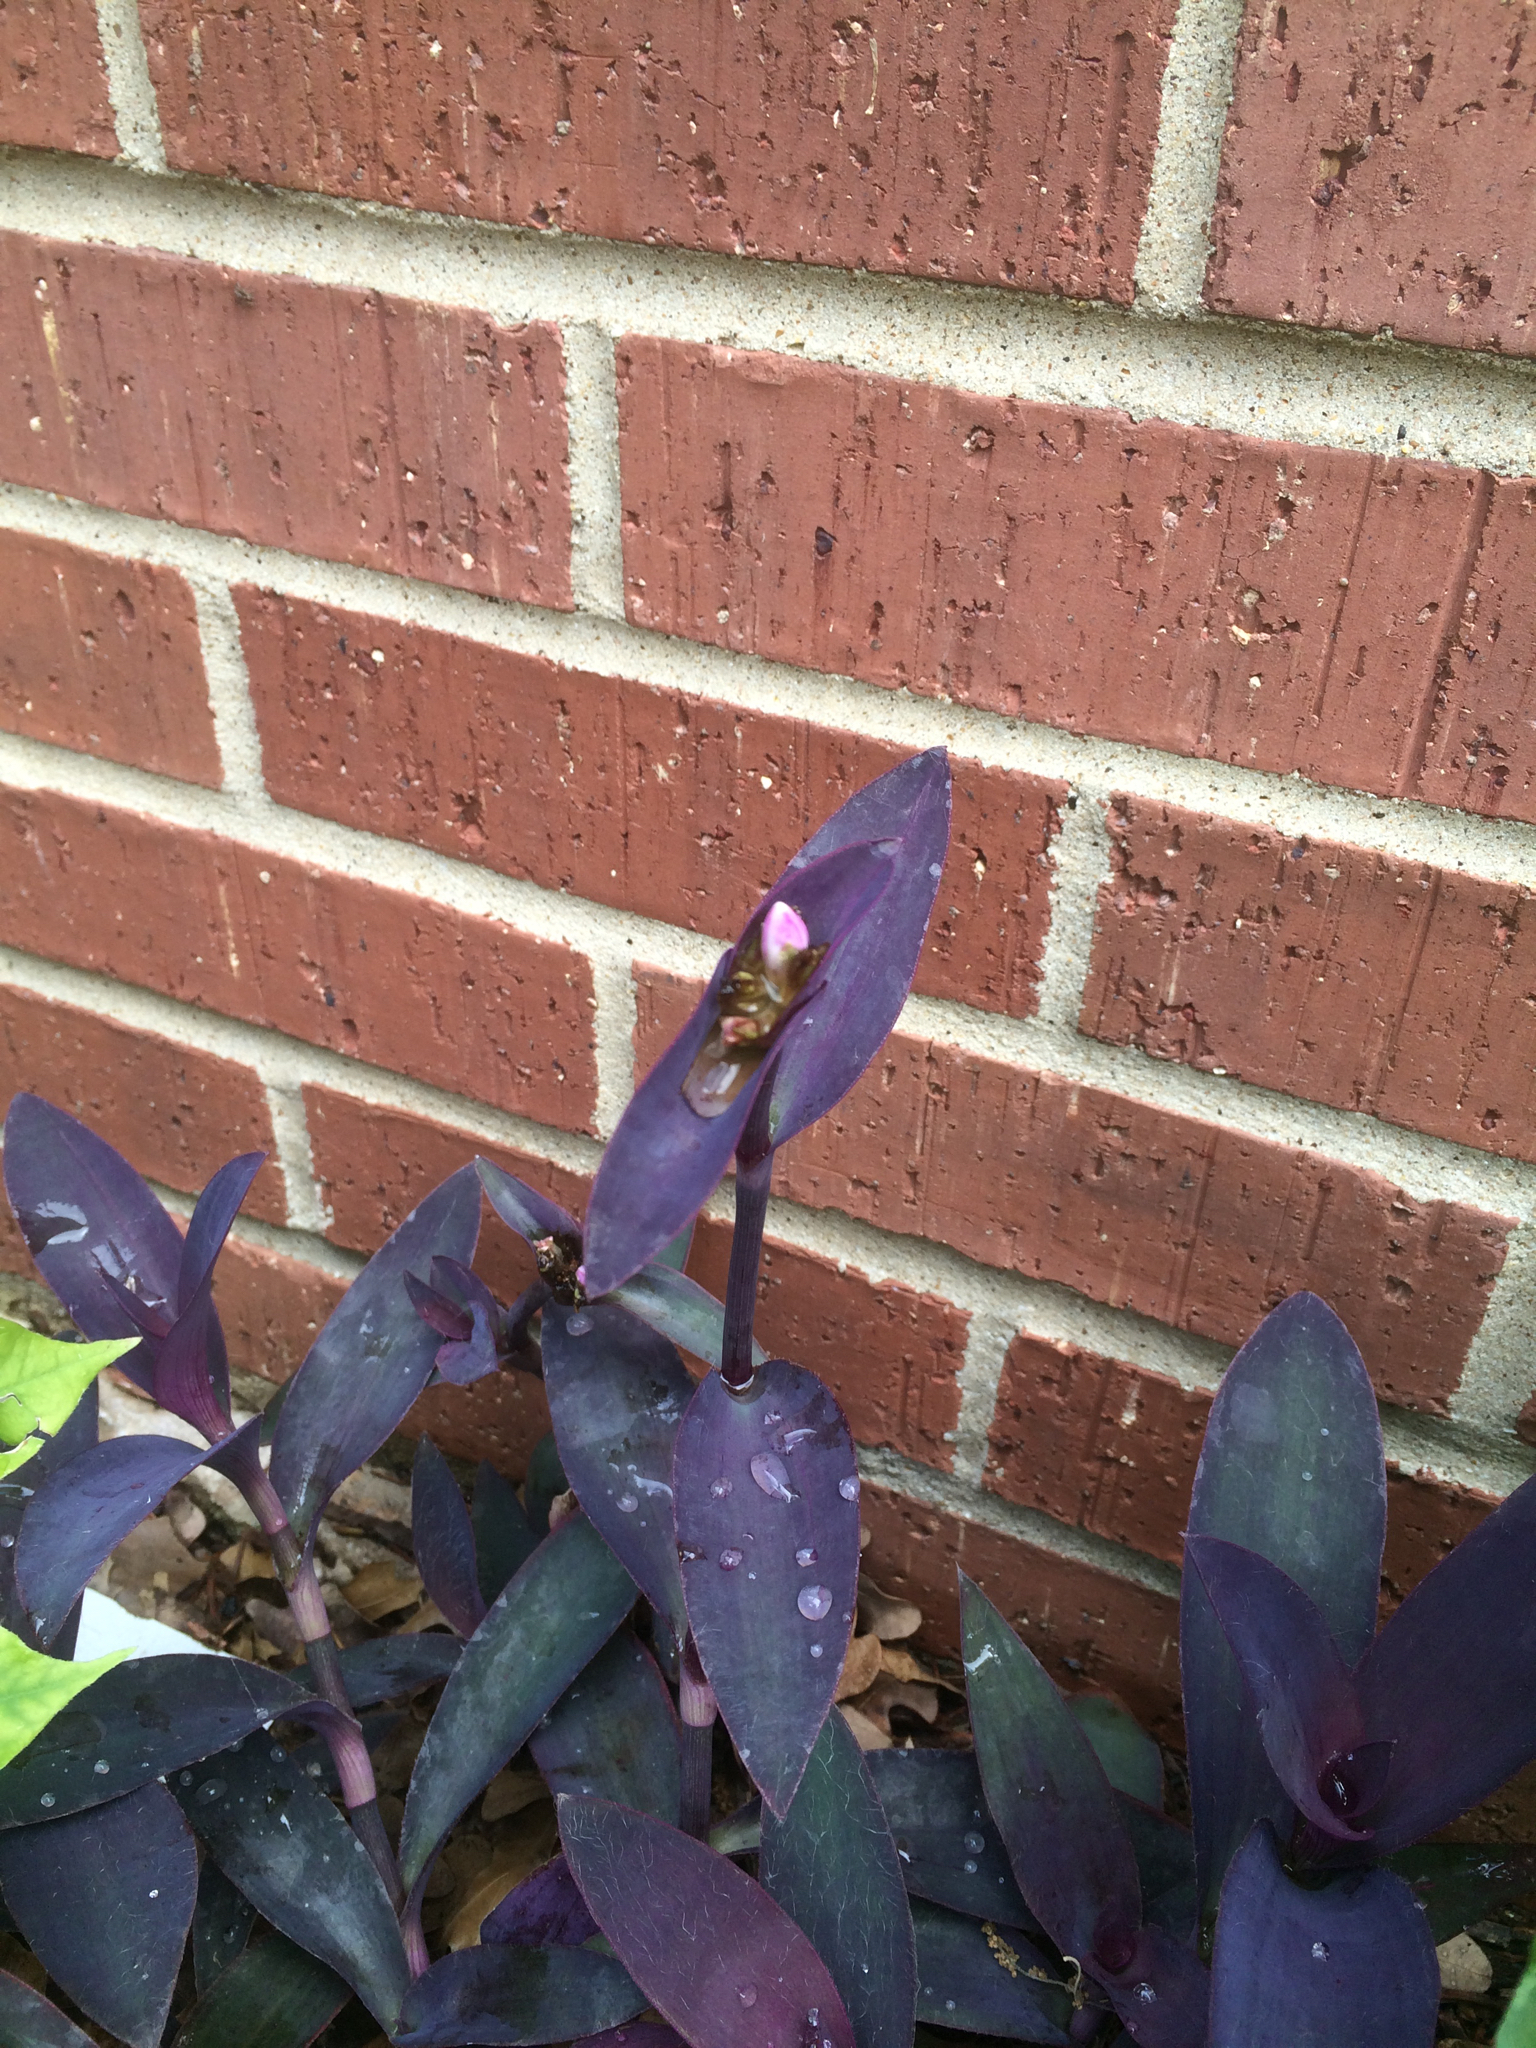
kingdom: Plantae
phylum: Tracheophyta
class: Liliopsida
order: Commelinales
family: Commelinaceae
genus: Tradescantia
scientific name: Tradescantia pallida
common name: Purpleheart
